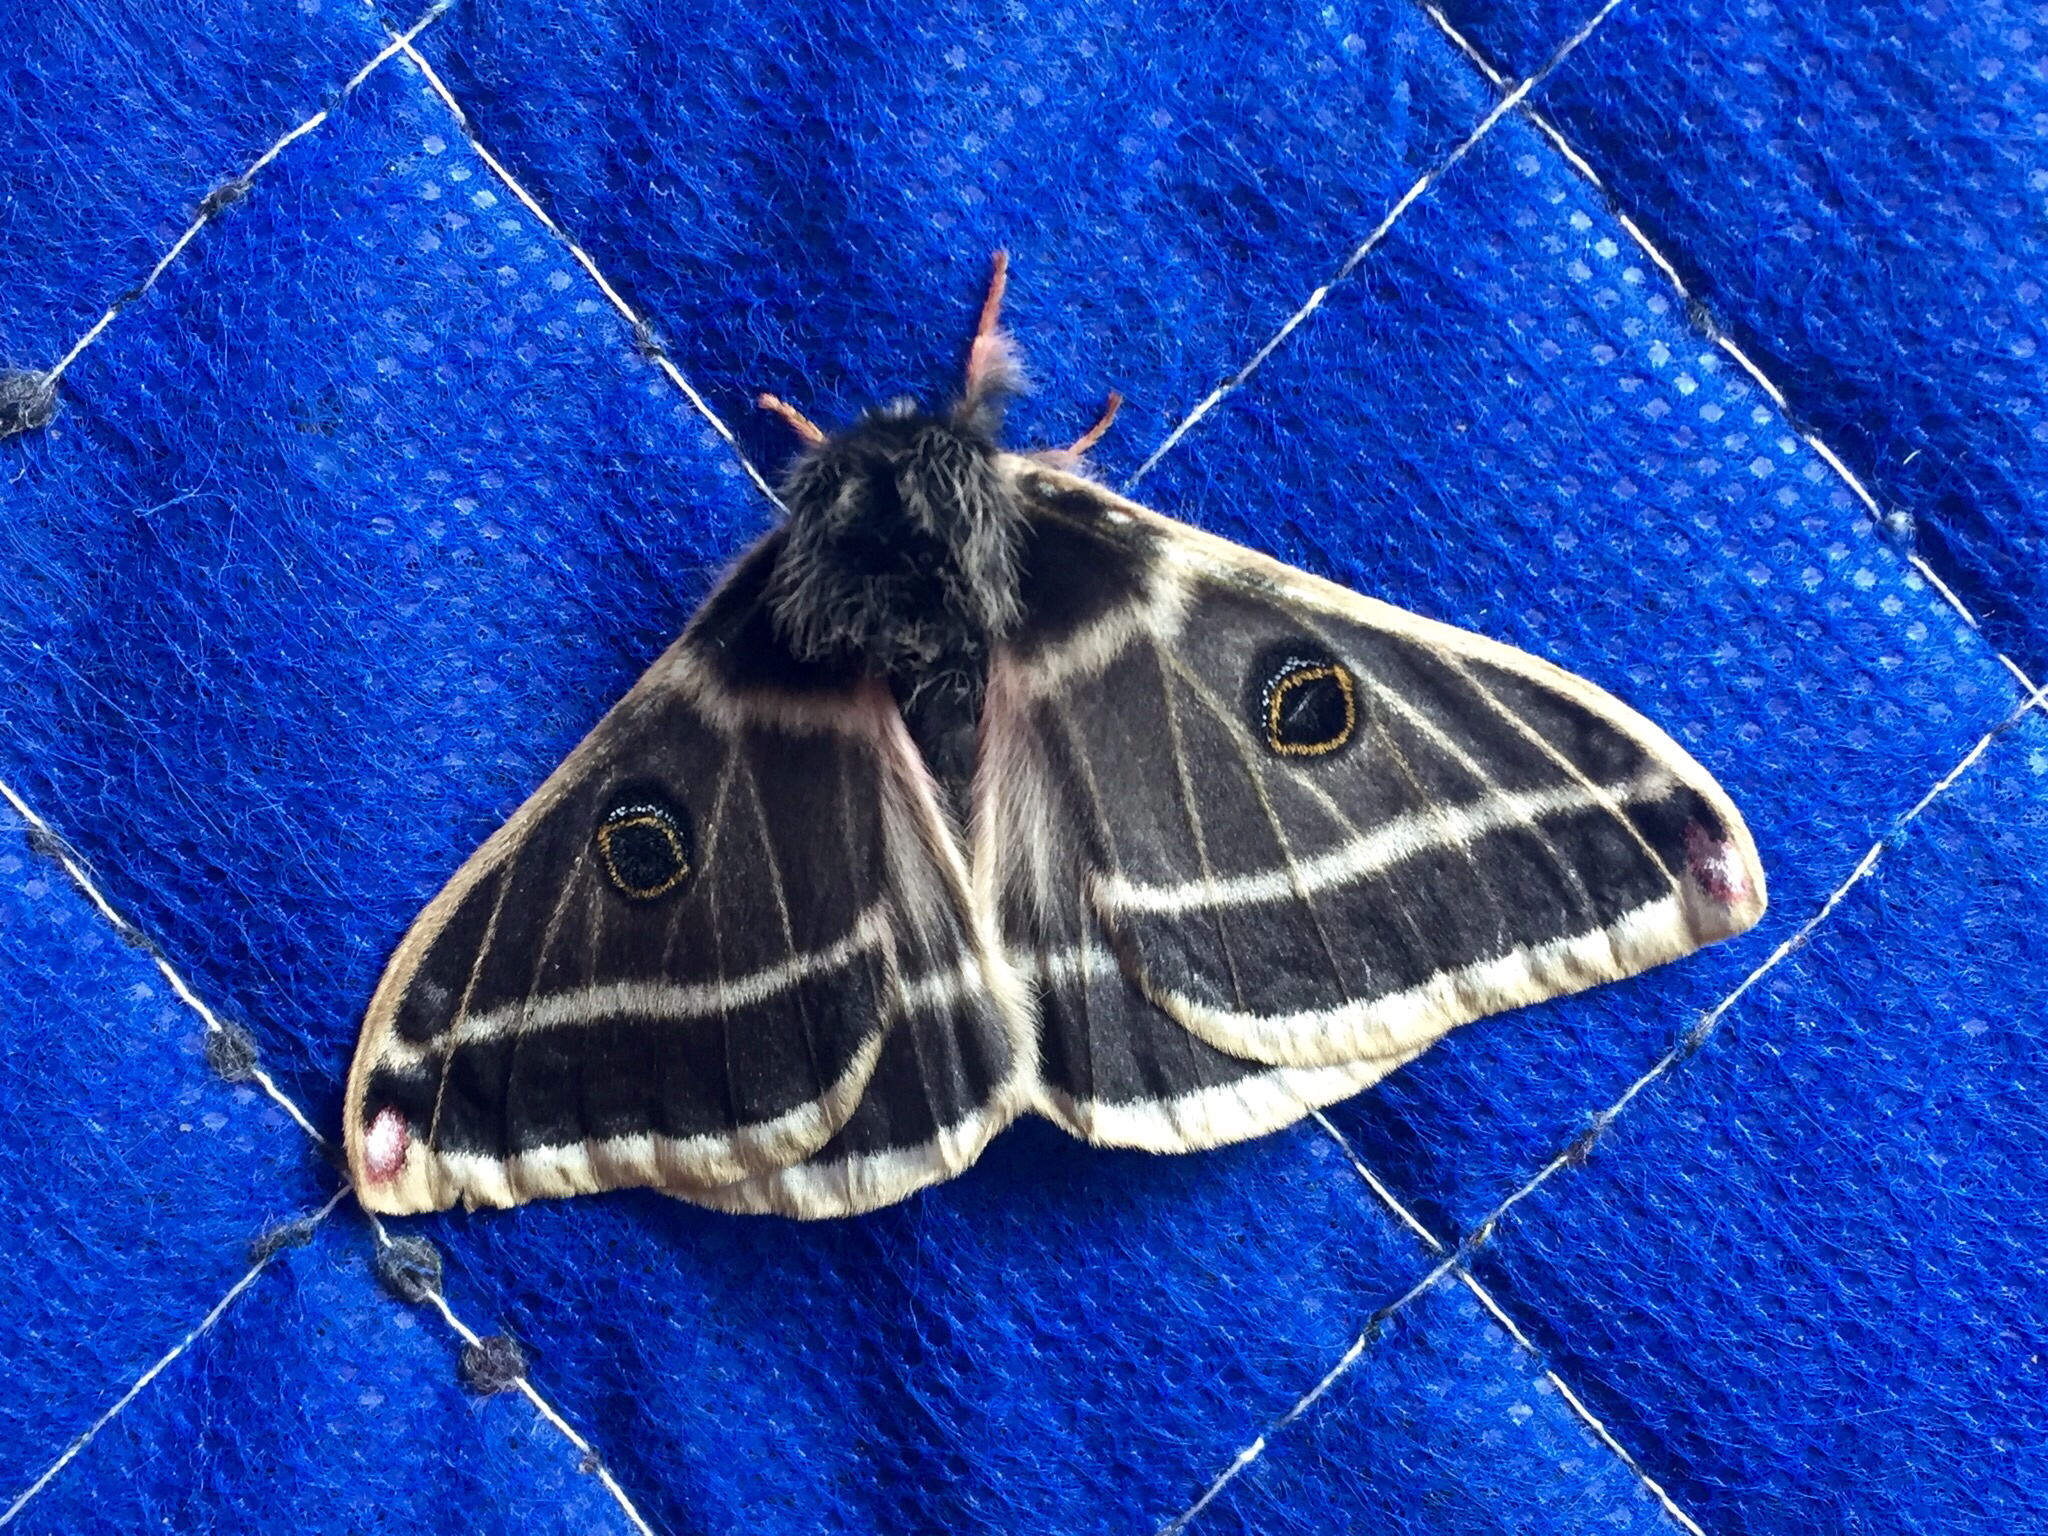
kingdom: Animalia
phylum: Arthropoda
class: Insecta
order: Lepidoptera
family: Saturniidae
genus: Agapema
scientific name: Agapema homogena
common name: Rocky mountain agapema
